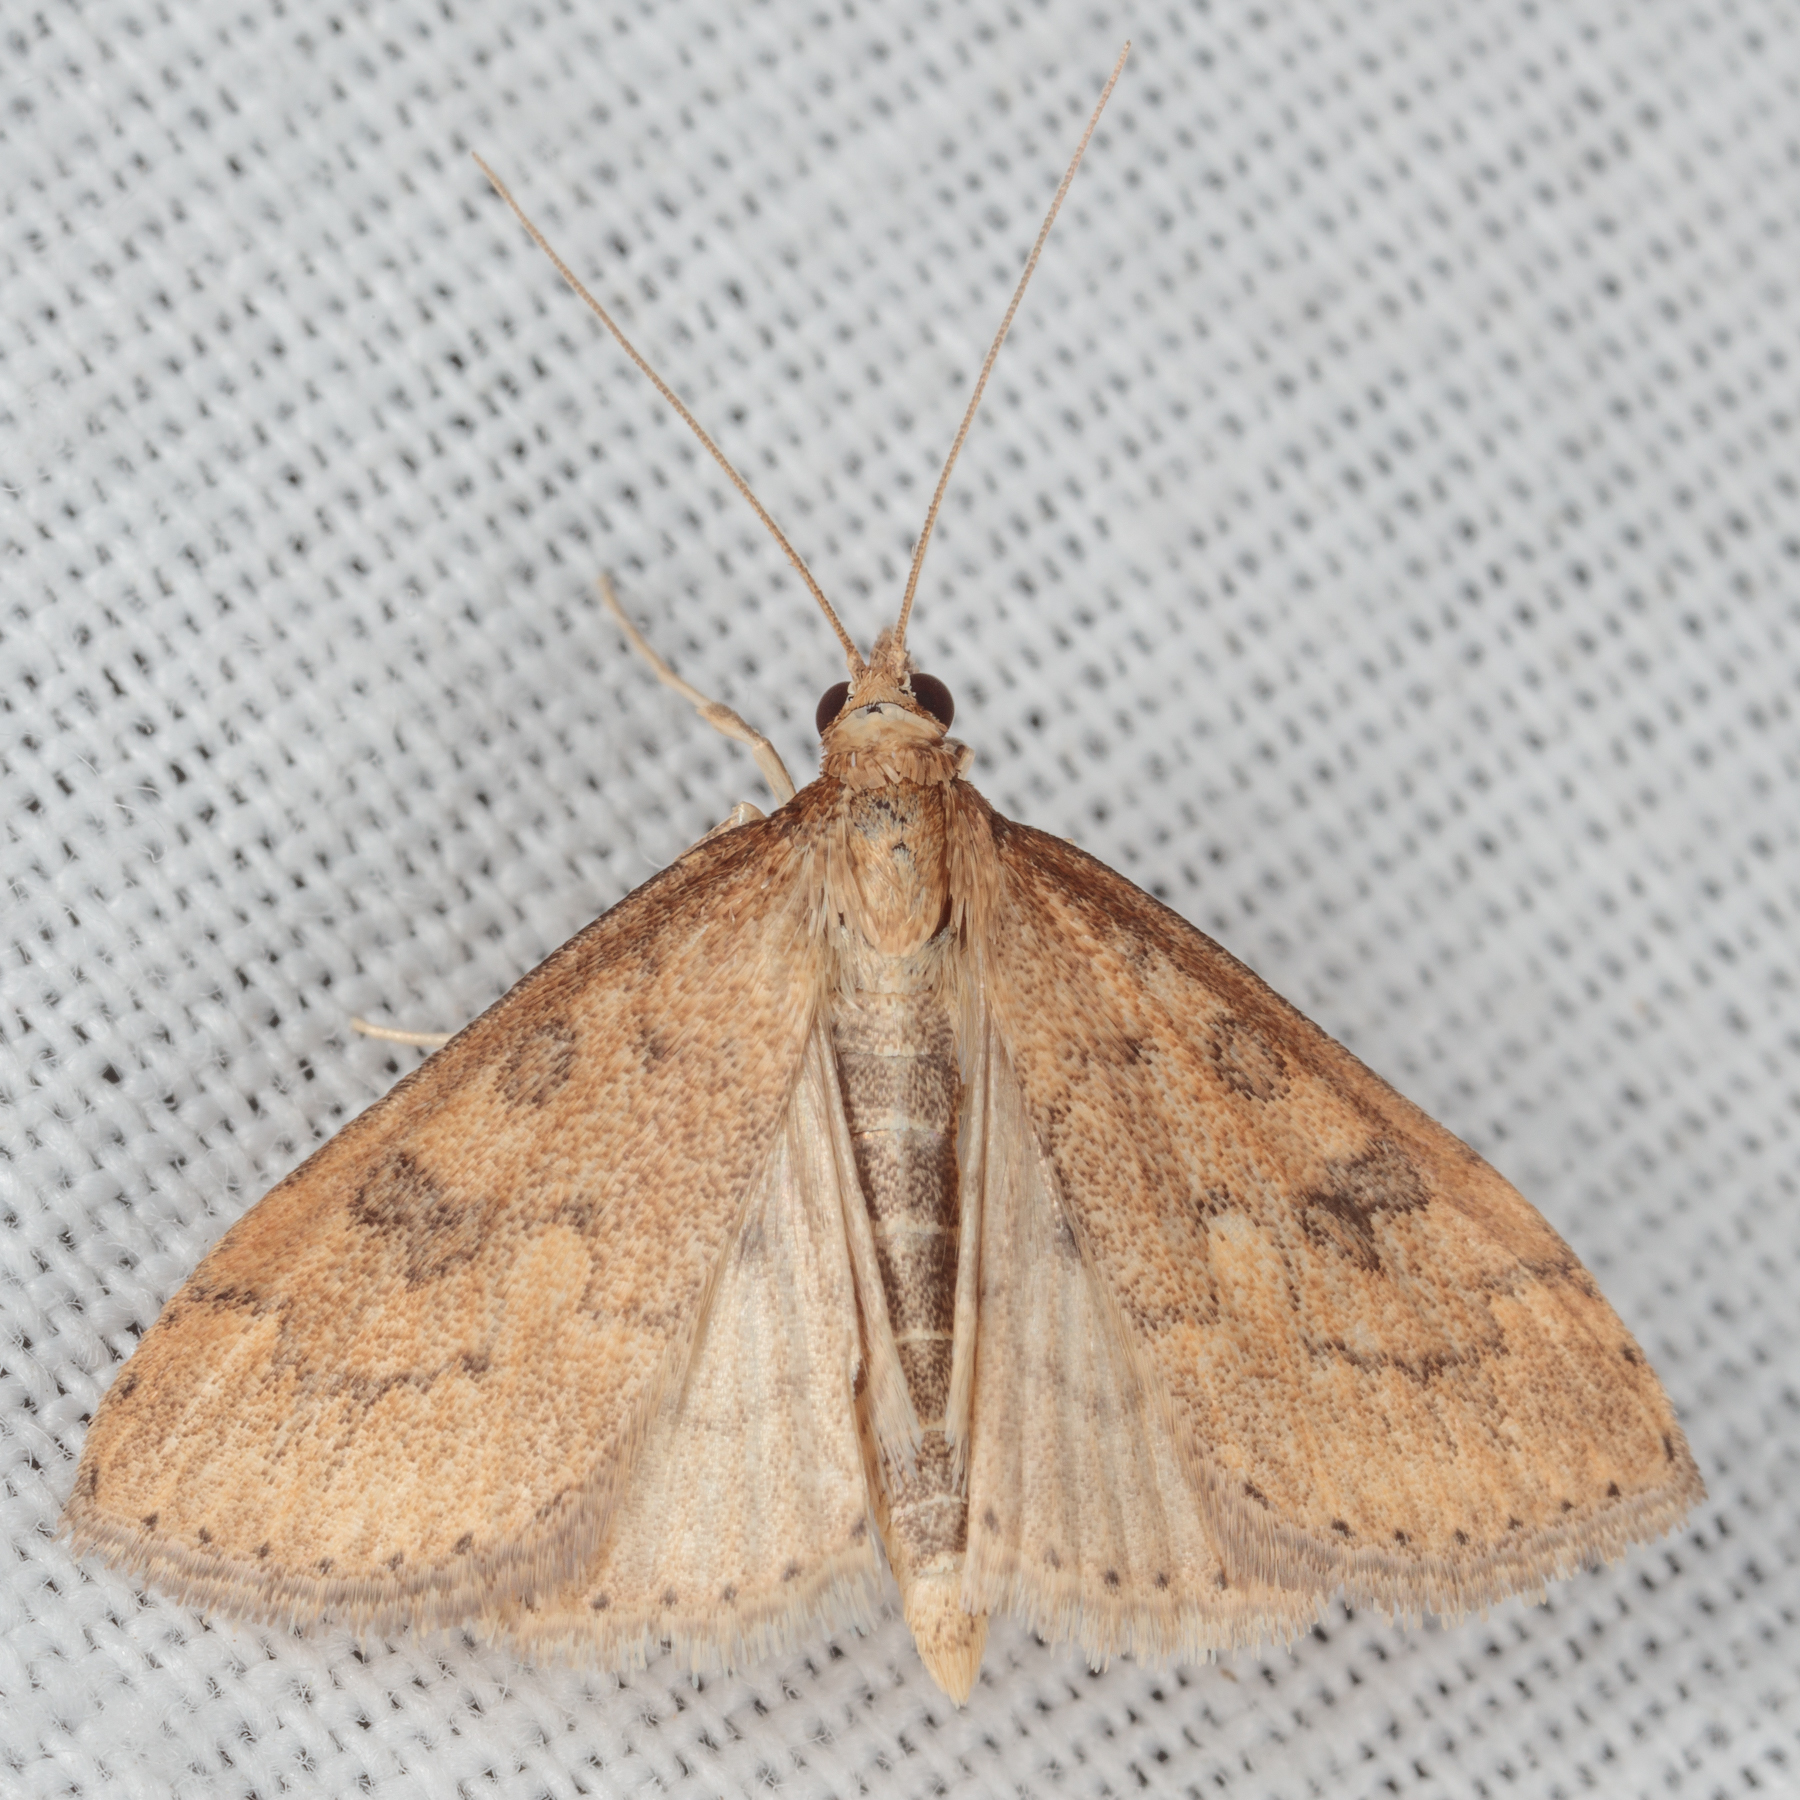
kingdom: Animalia
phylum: Arthropoda
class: Insecta
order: Lepidoptera
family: Crambidae
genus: Udea
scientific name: Udea rubigalis
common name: Celery leaftier moth
